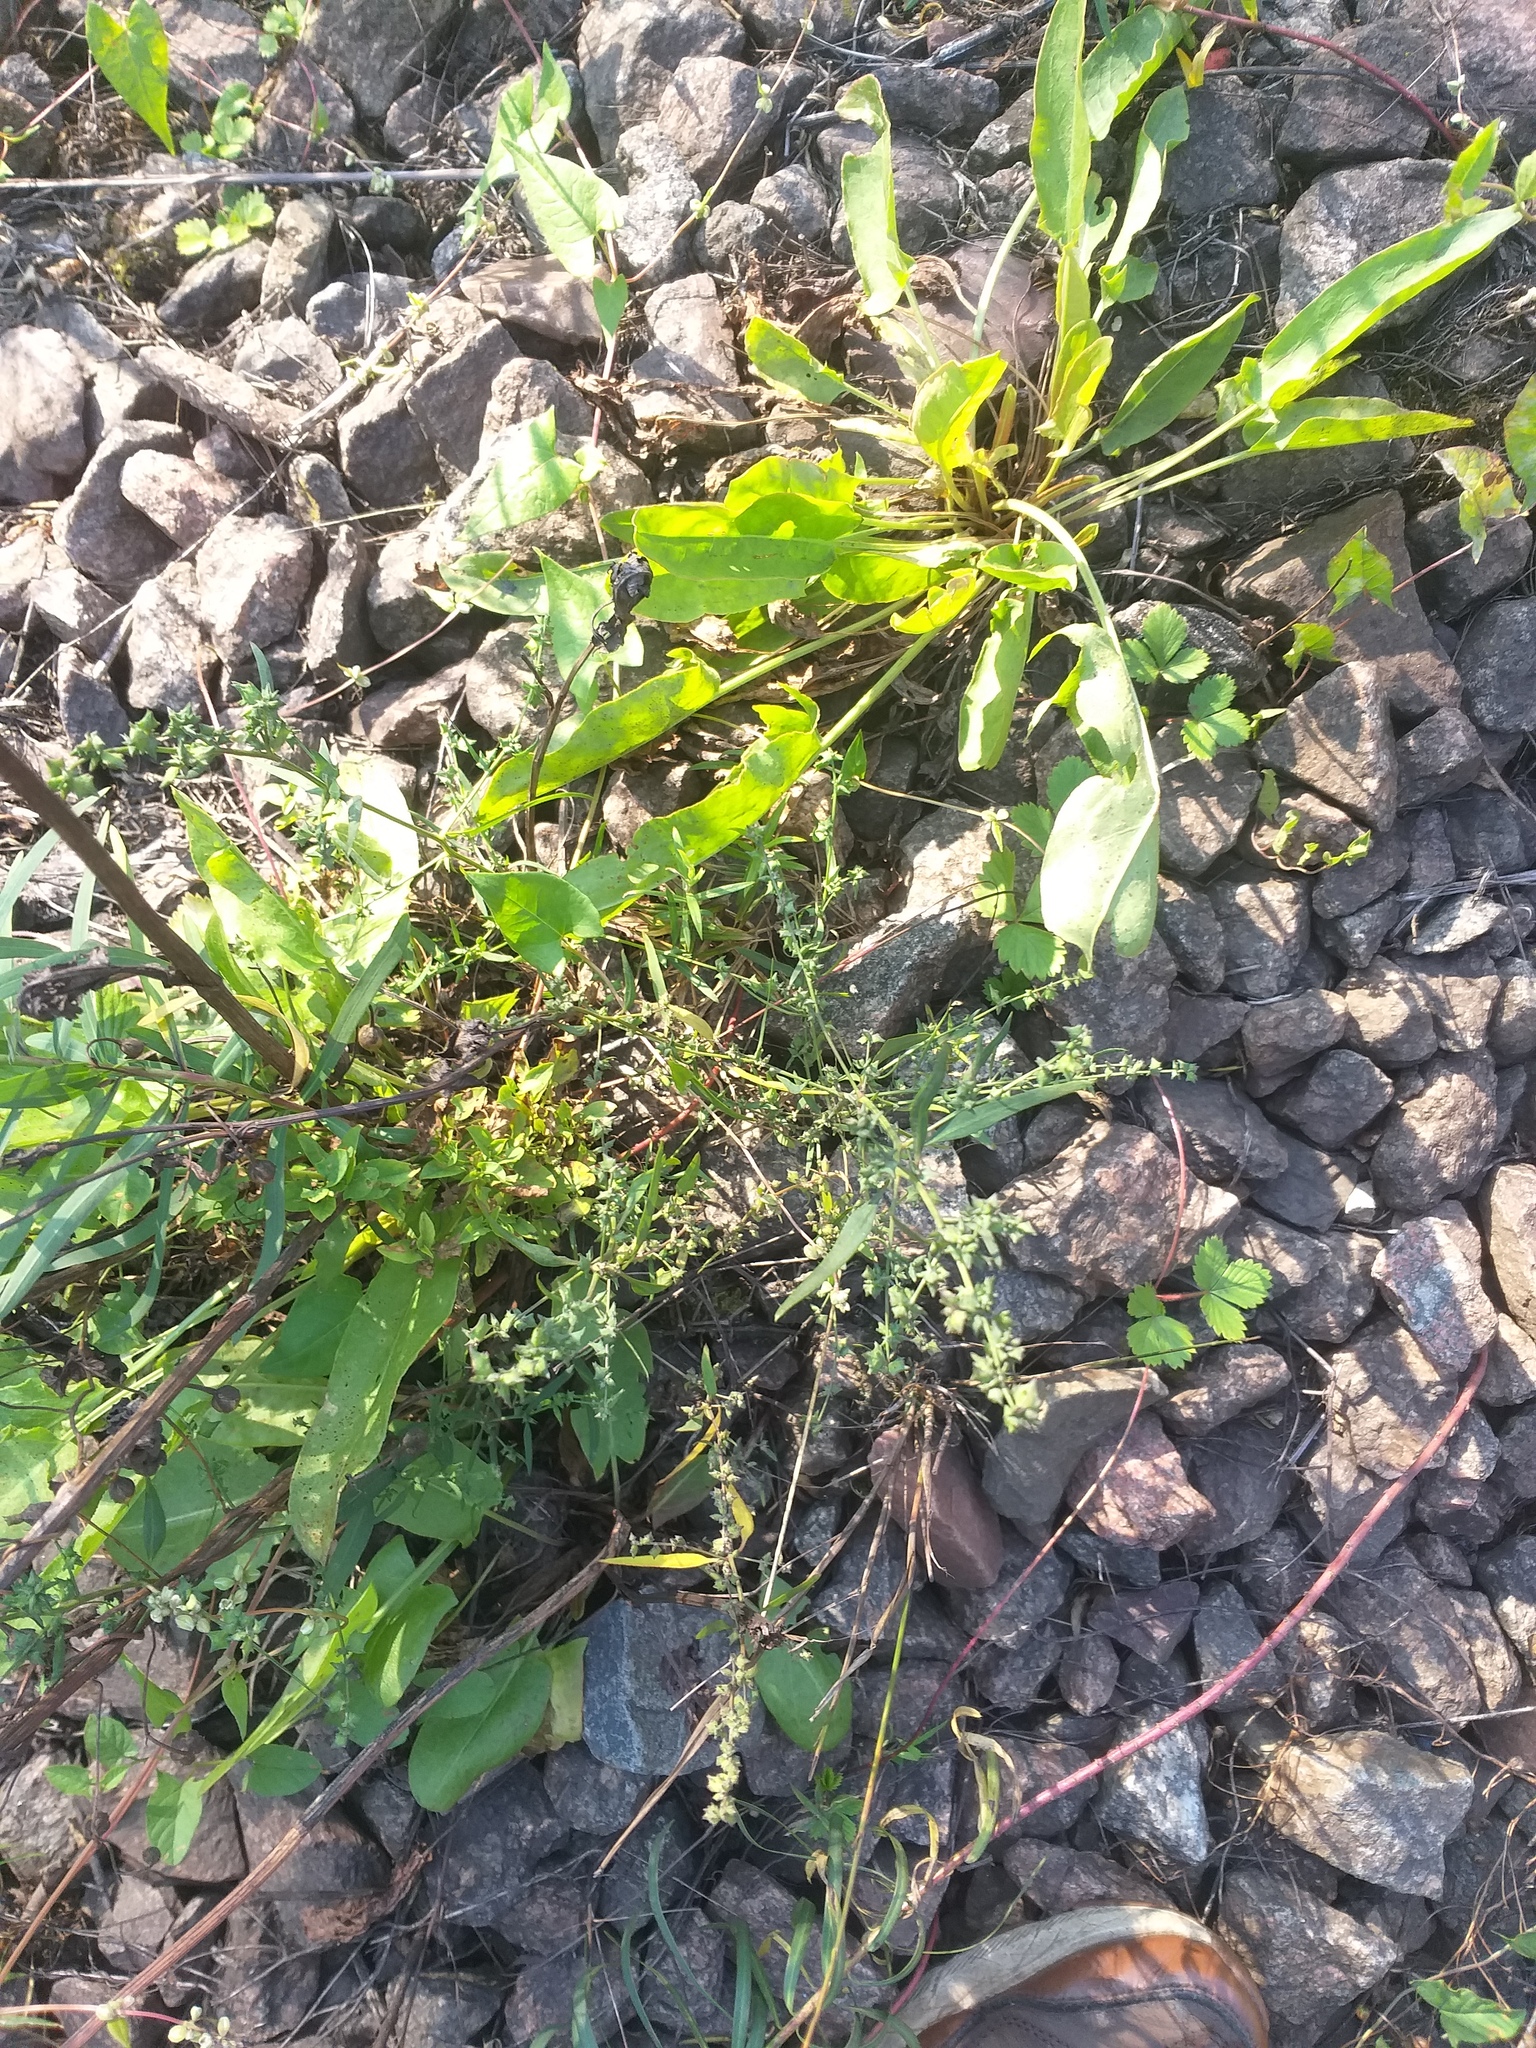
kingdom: Plantae
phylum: Tracheophyta
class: Magnoliopsida
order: Caryophyllales
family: Amaranthaceae
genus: Atriplex
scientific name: Atriplex patula
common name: Common orache
